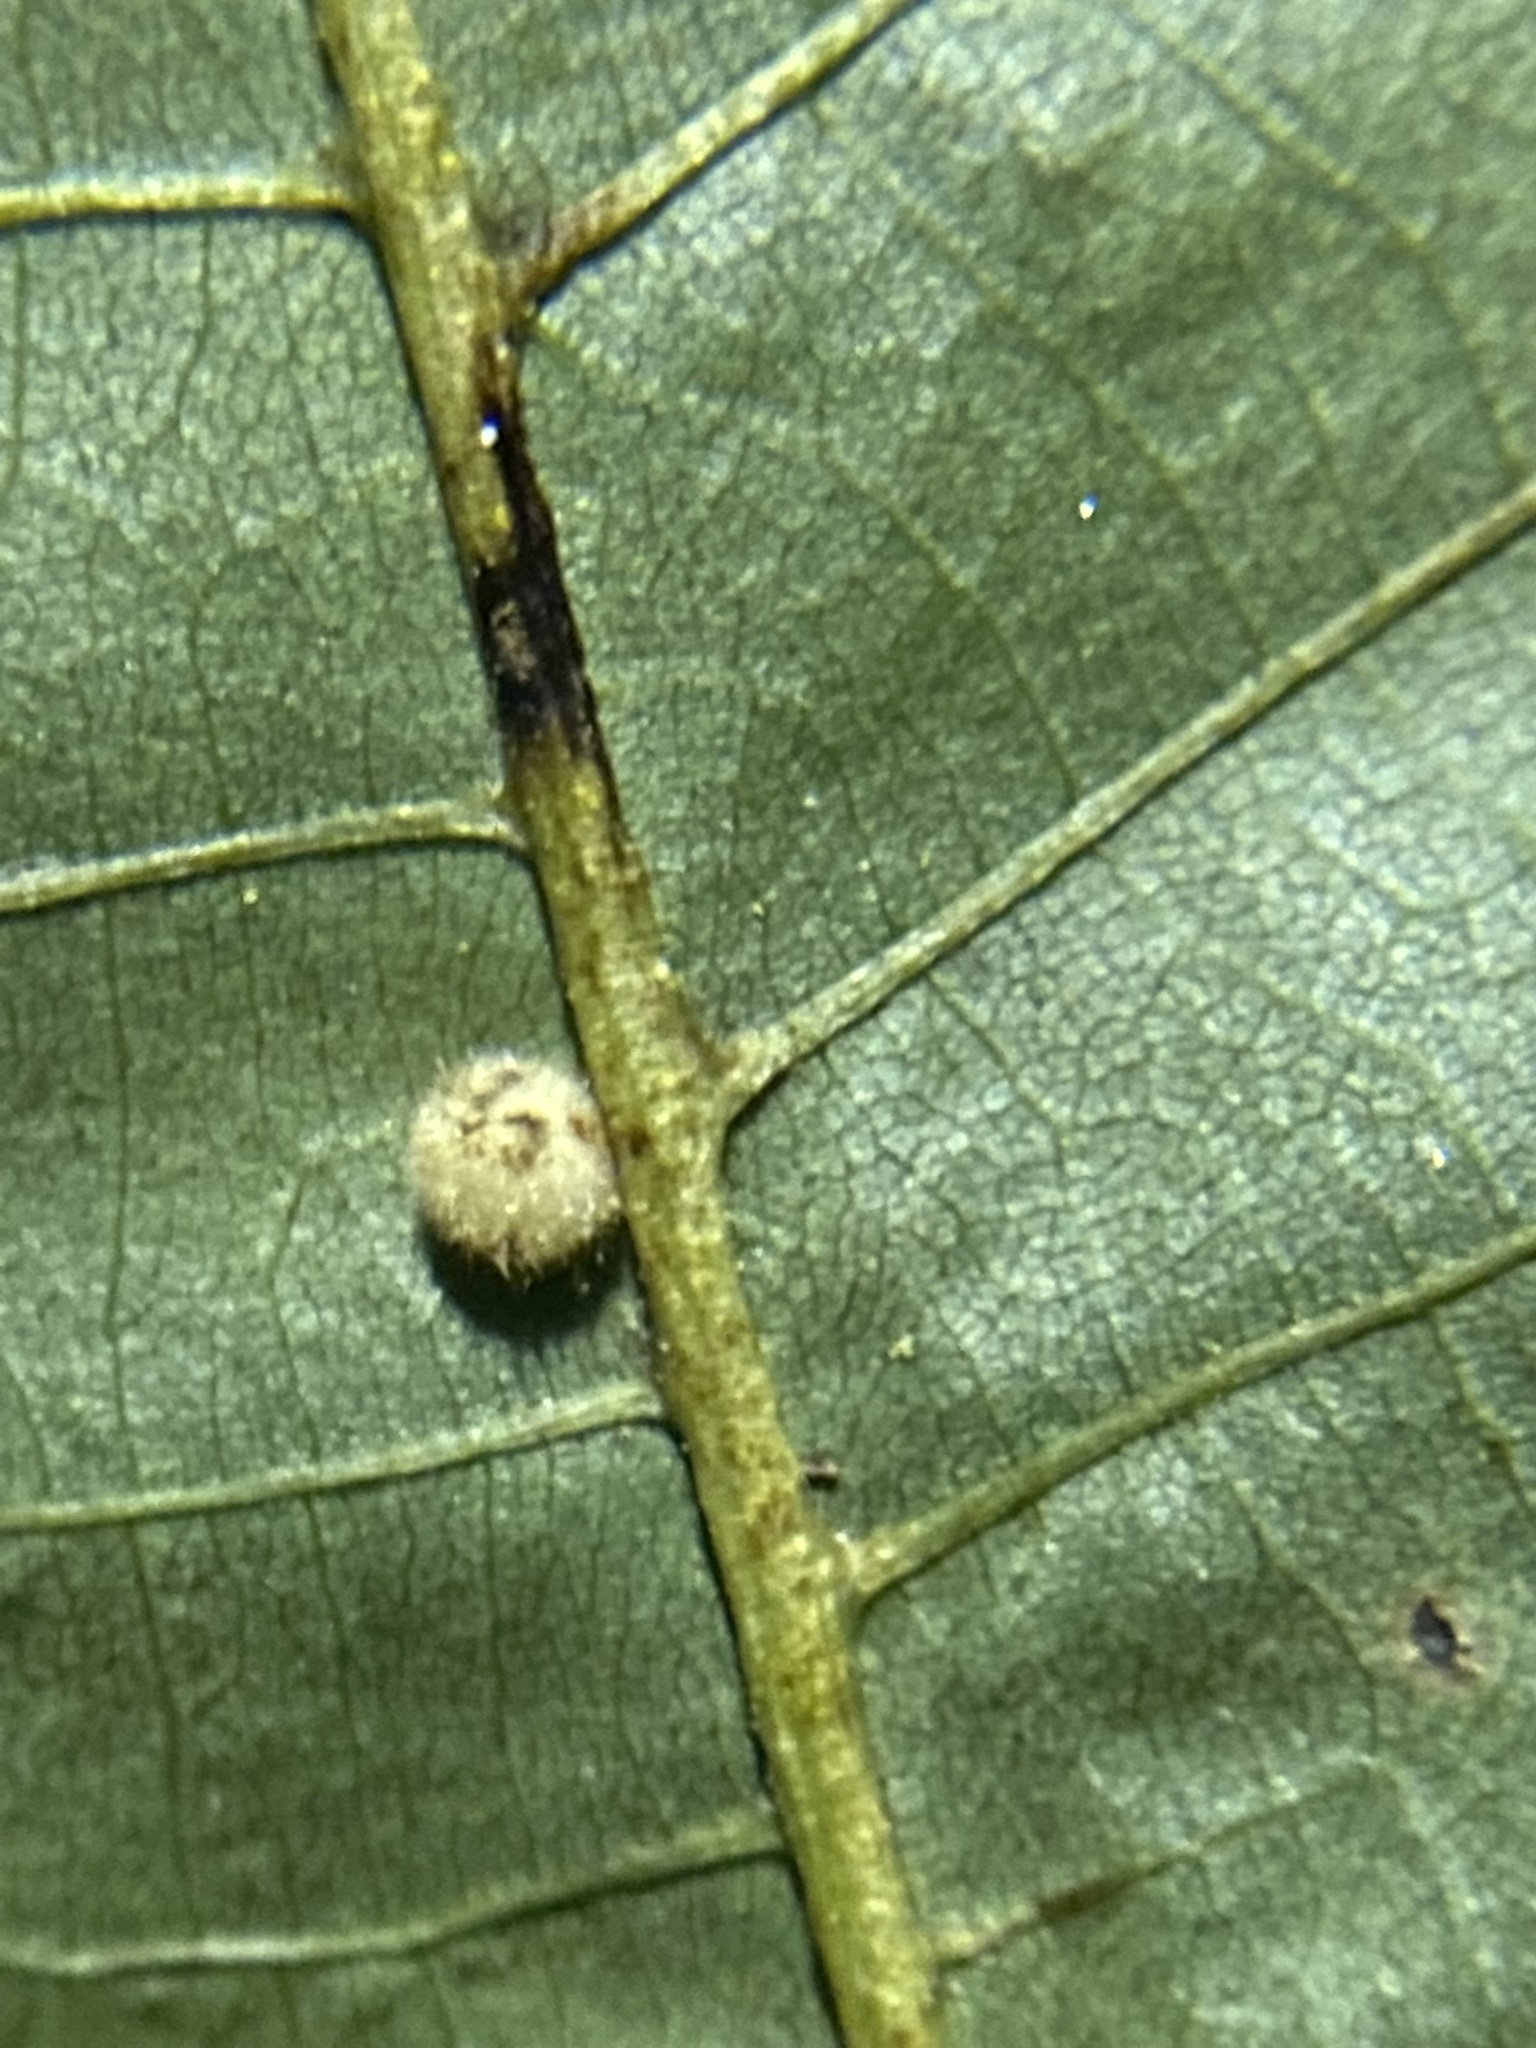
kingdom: Animalia
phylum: Arthropoda
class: Insecta
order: Diptera
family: Cecidomyiidae
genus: Caryomyia
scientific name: Caryomyia holotricha
